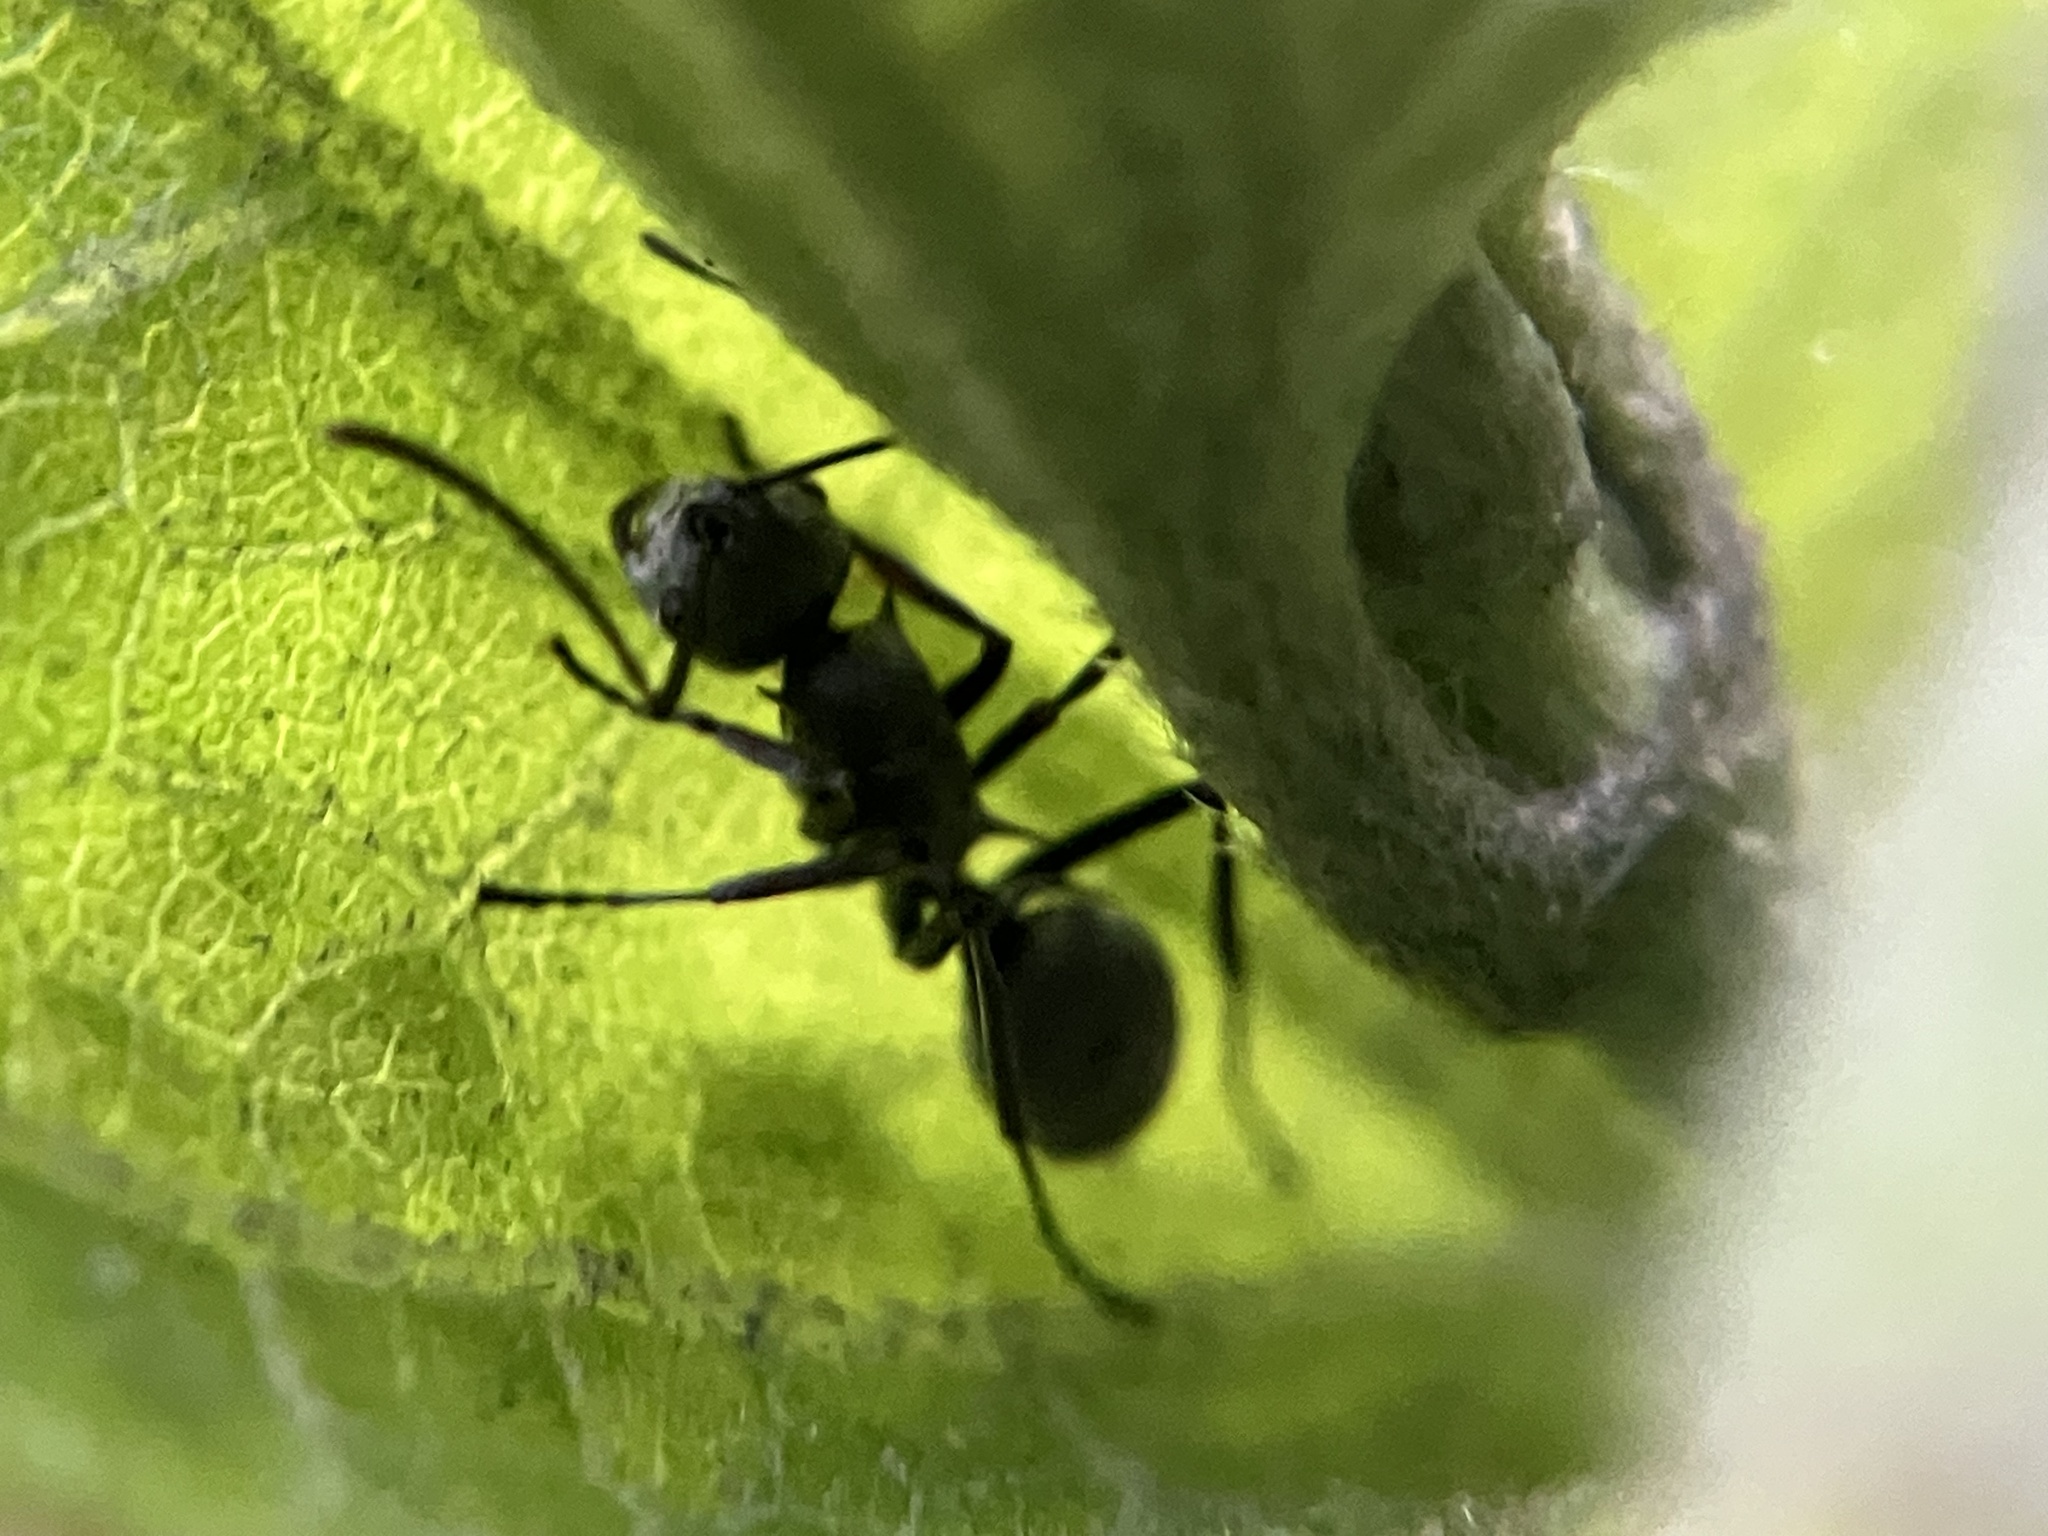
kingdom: Animalia
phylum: Arthropoda
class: Insecta
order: Hymenoptera
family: Formicidae
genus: Polyrhachis
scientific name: Polyrhachis tibialis
